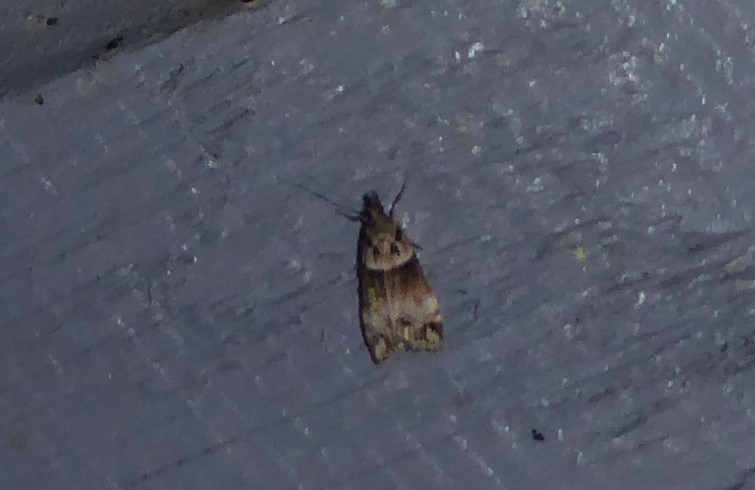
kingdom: Animalia
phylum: Arthropoda
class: Insecta
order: Lepidoptera
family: Crambidae
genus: Eudonia
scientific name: Eudonia periphanes
